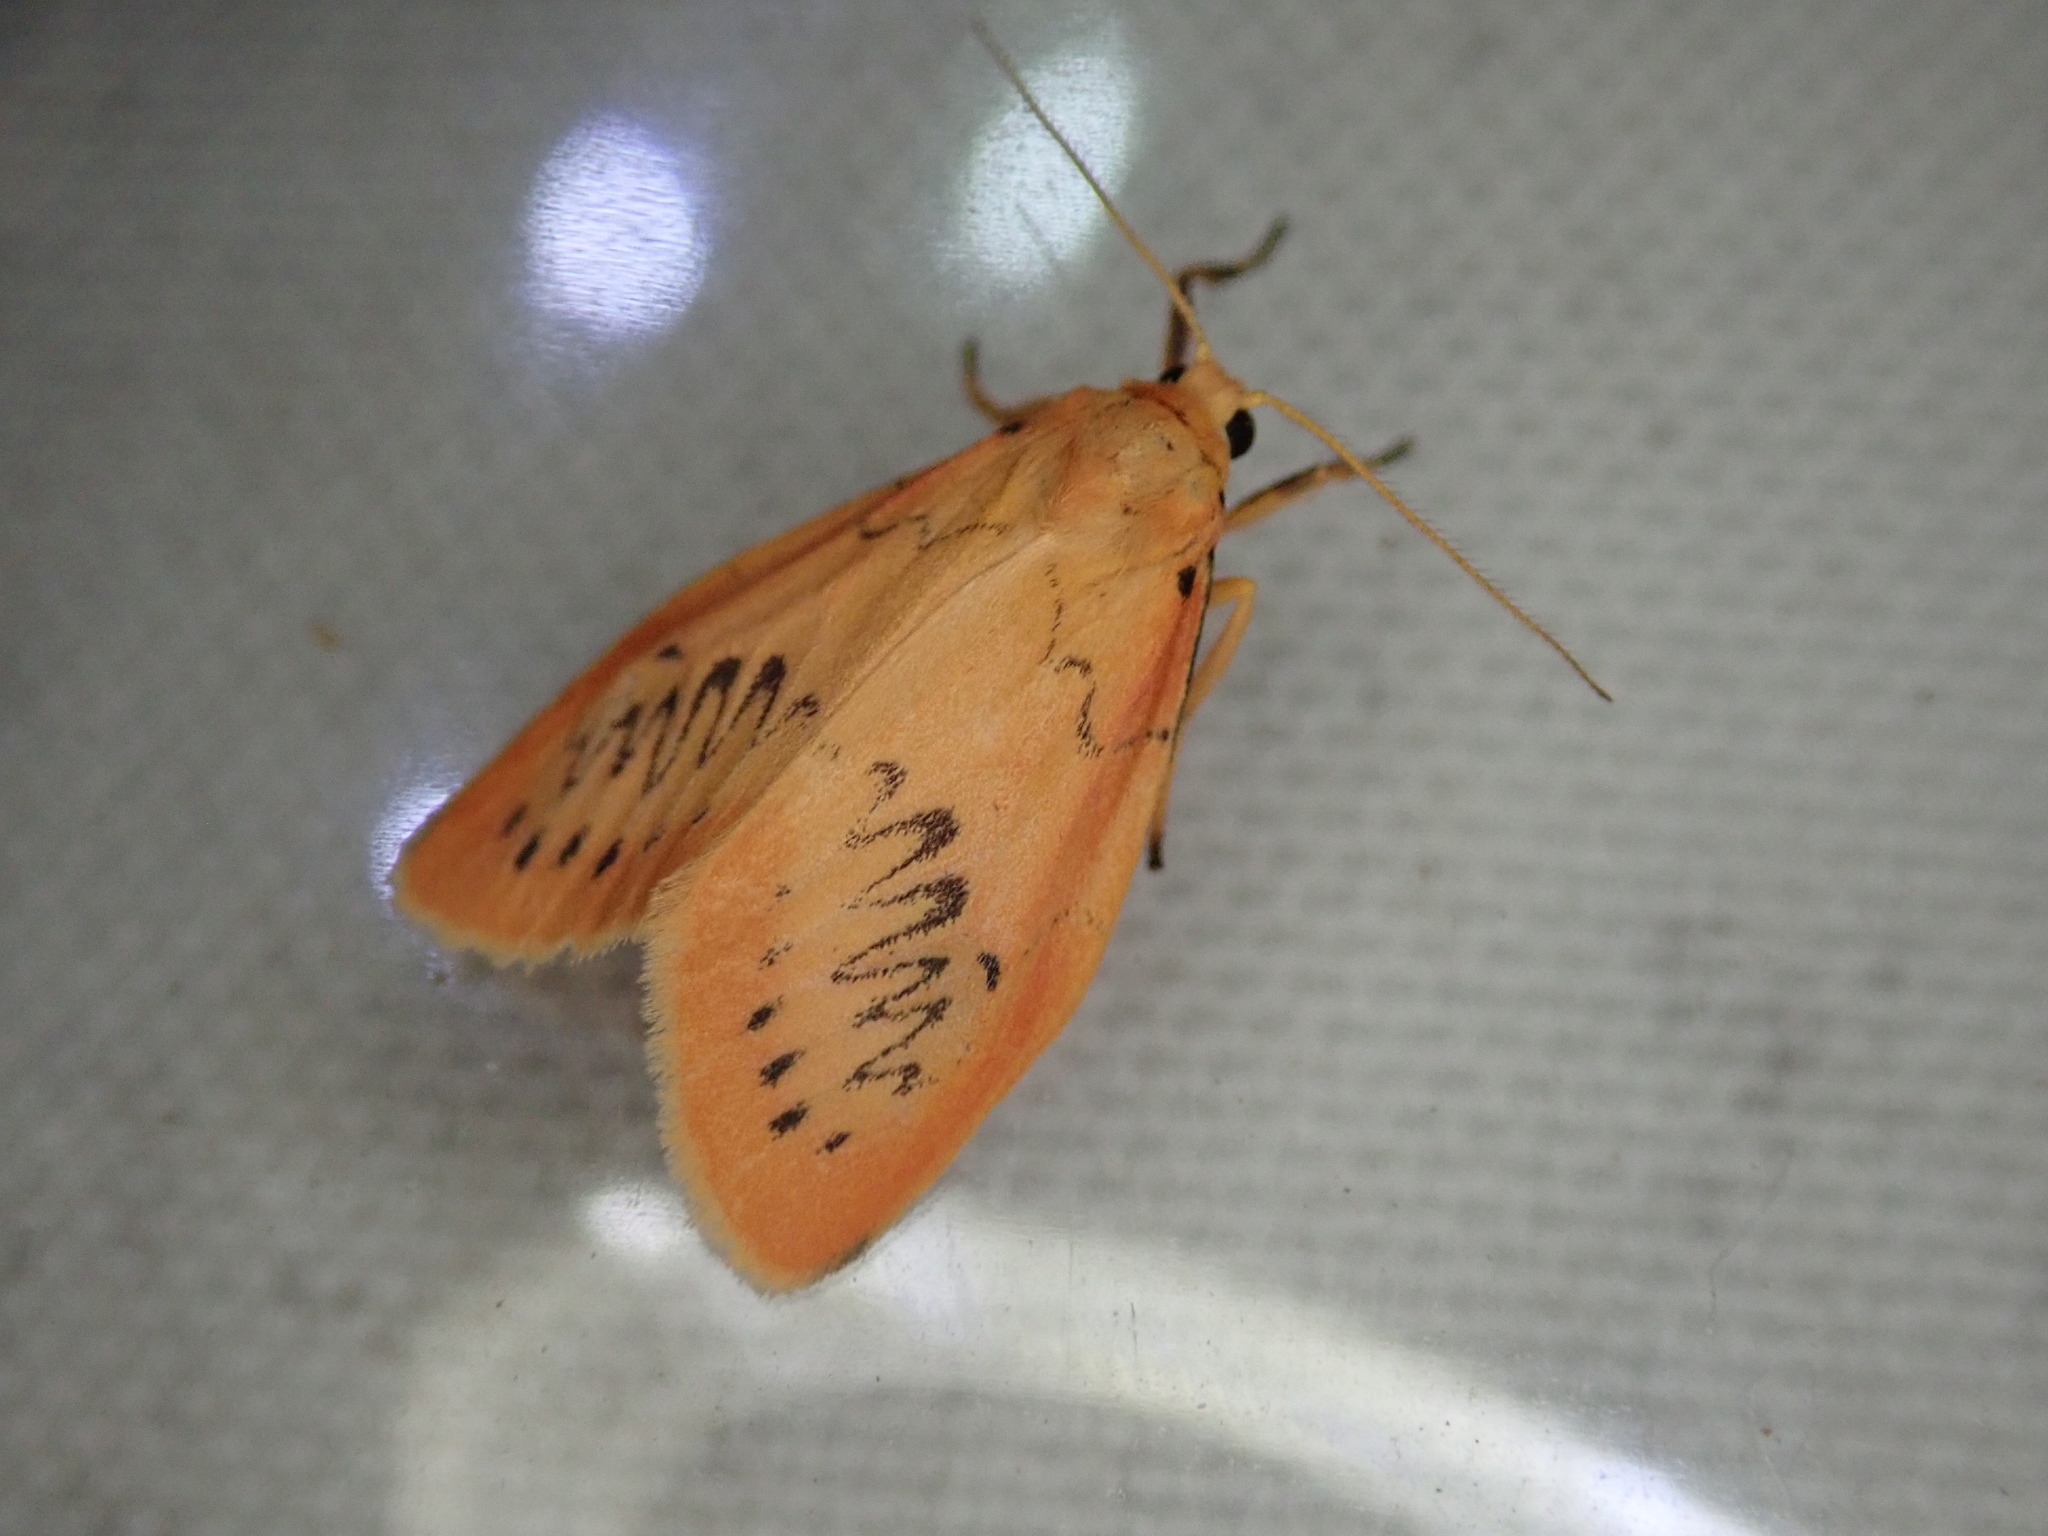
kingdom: Animalia
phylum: Arthropoda
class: Insecta
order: Lepidoptera
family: Erebidae
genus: Miltochrista
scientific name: Miltochrista miniata
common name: Rosy footman
